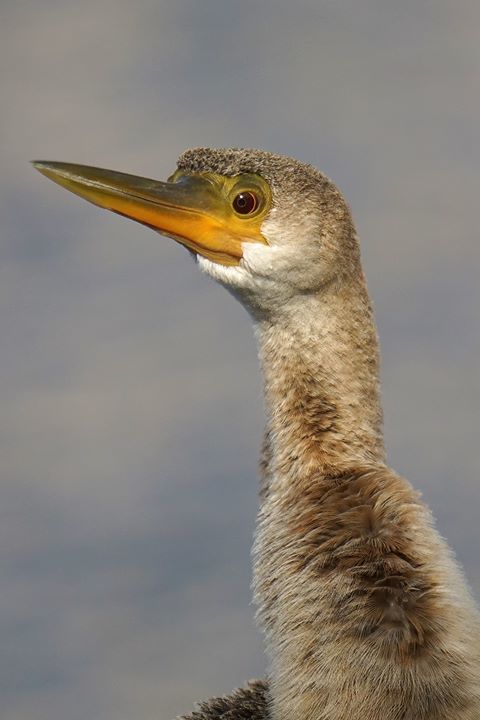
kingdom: Animalia
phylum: Chordata
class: Aves
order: Suliformes
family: Anhingidae
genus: Anhinga
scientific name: Anhinga anhinga
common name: Anhinga
